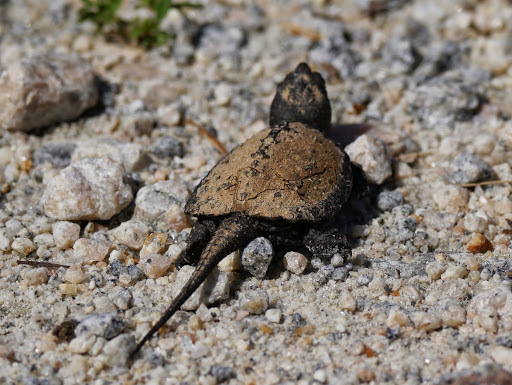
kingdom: Animalia
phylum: Chordata
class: Testudines
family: Chelydridae
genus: Chelydra
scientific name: Chelydra serpentina
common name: Common snapping turtle
